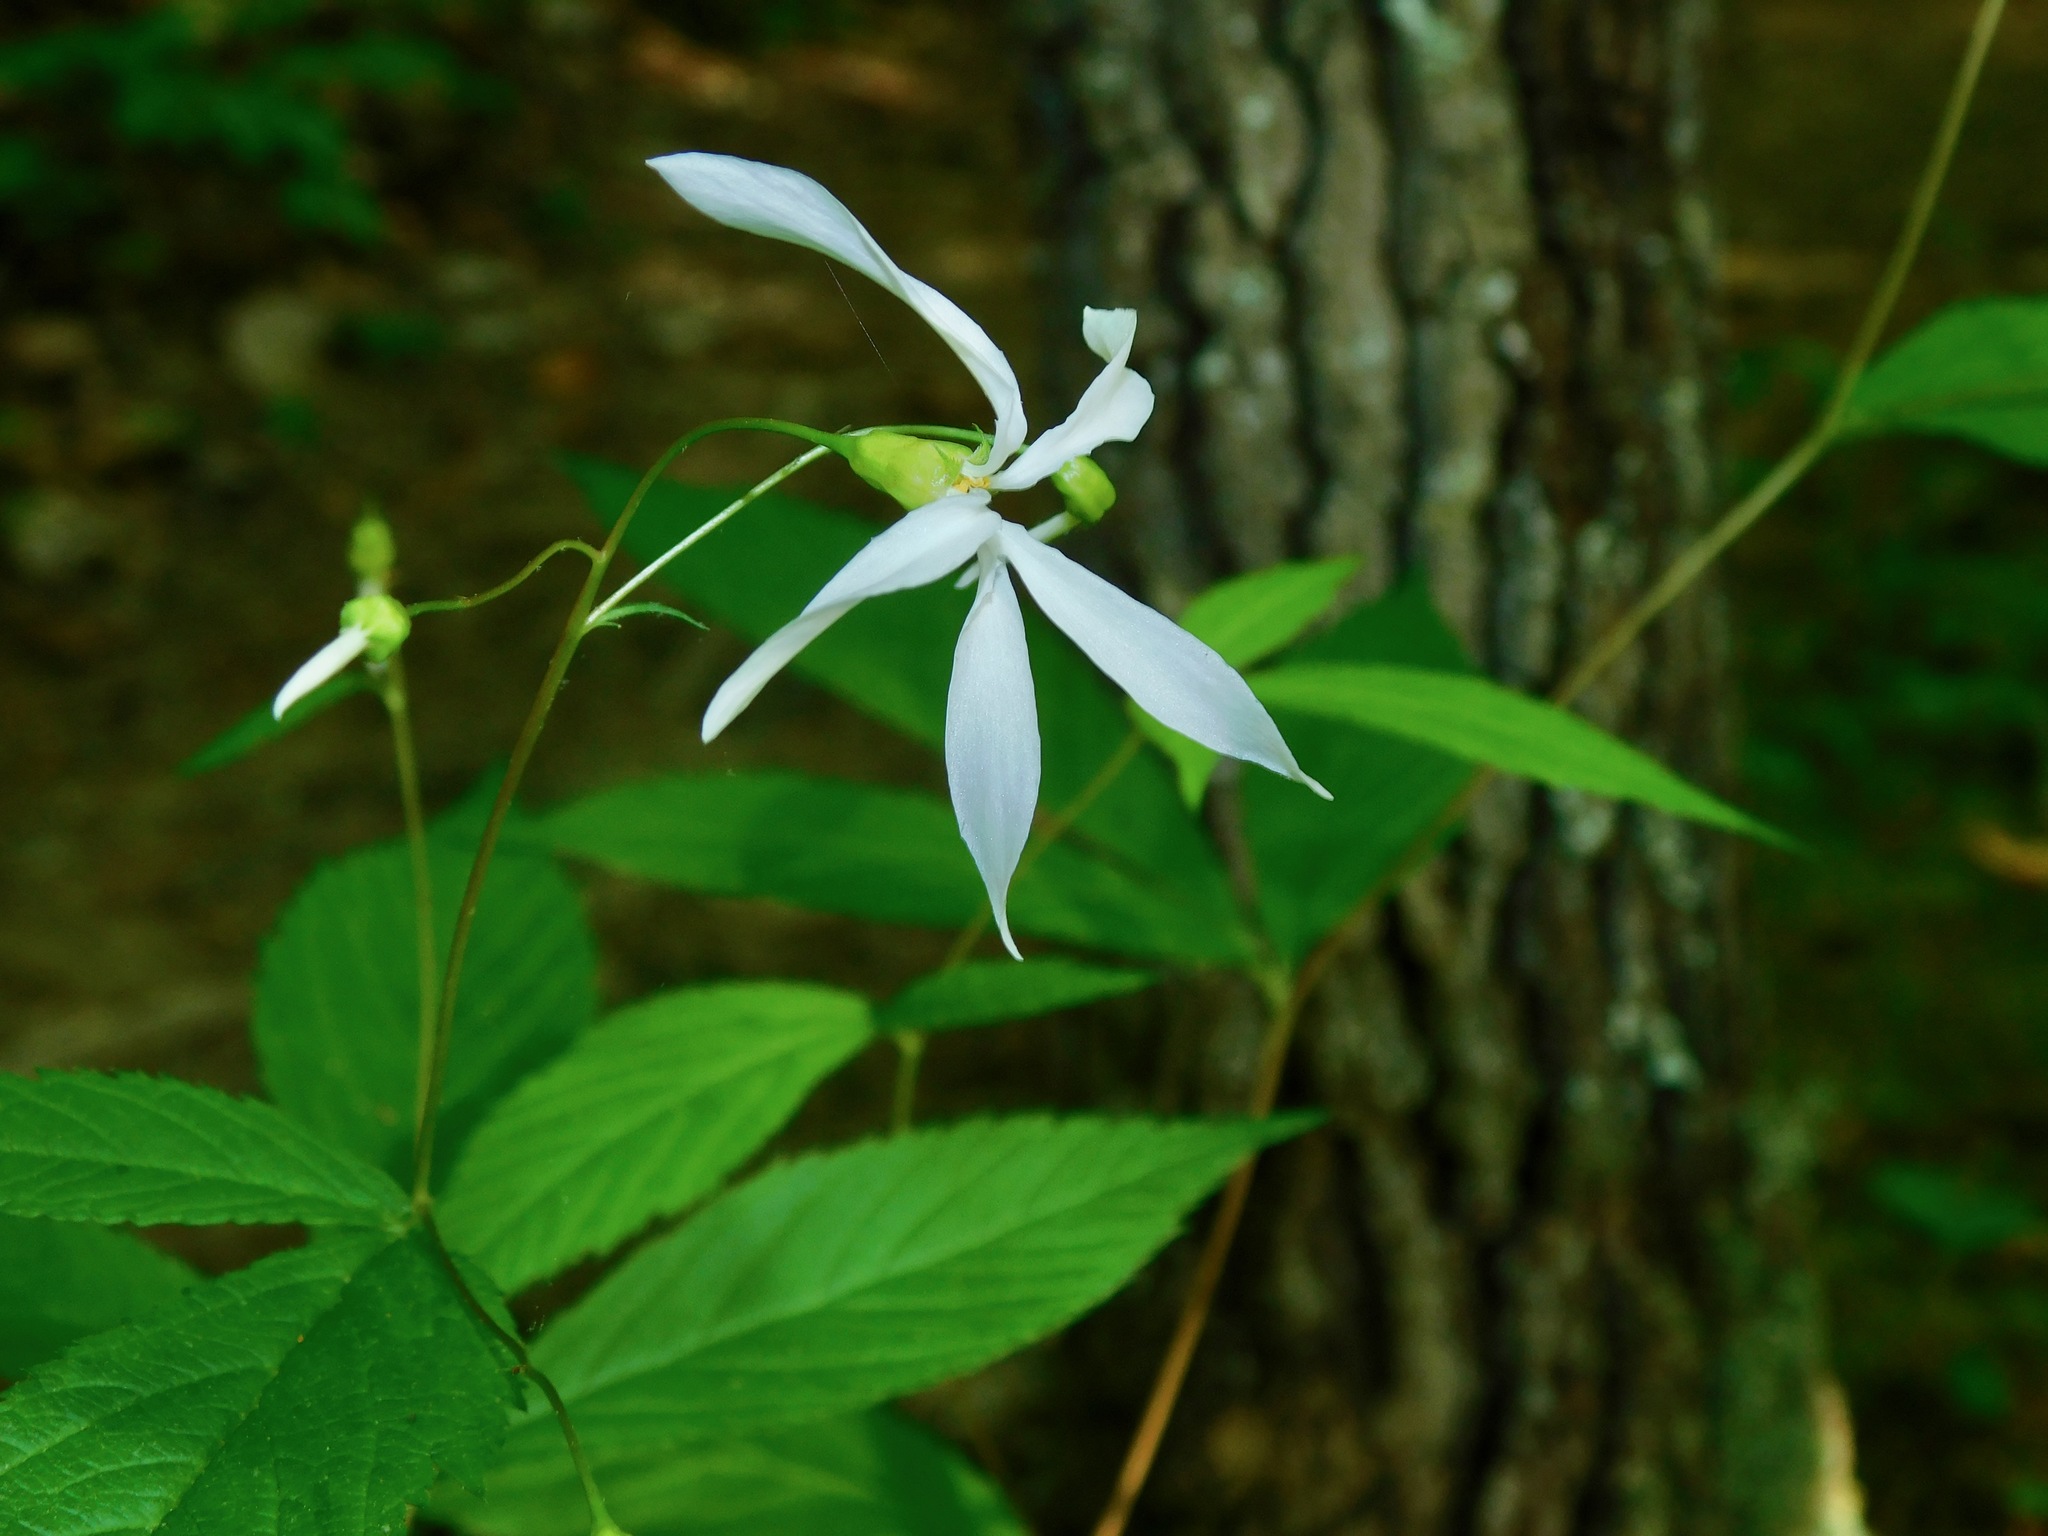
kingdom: Plantae
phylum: Tracheophyta
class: Magnoliopsida
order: Rosales
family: Rosaceae
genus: Gillenia
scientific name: Gillenia trifoliata
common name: Bowman's-root
